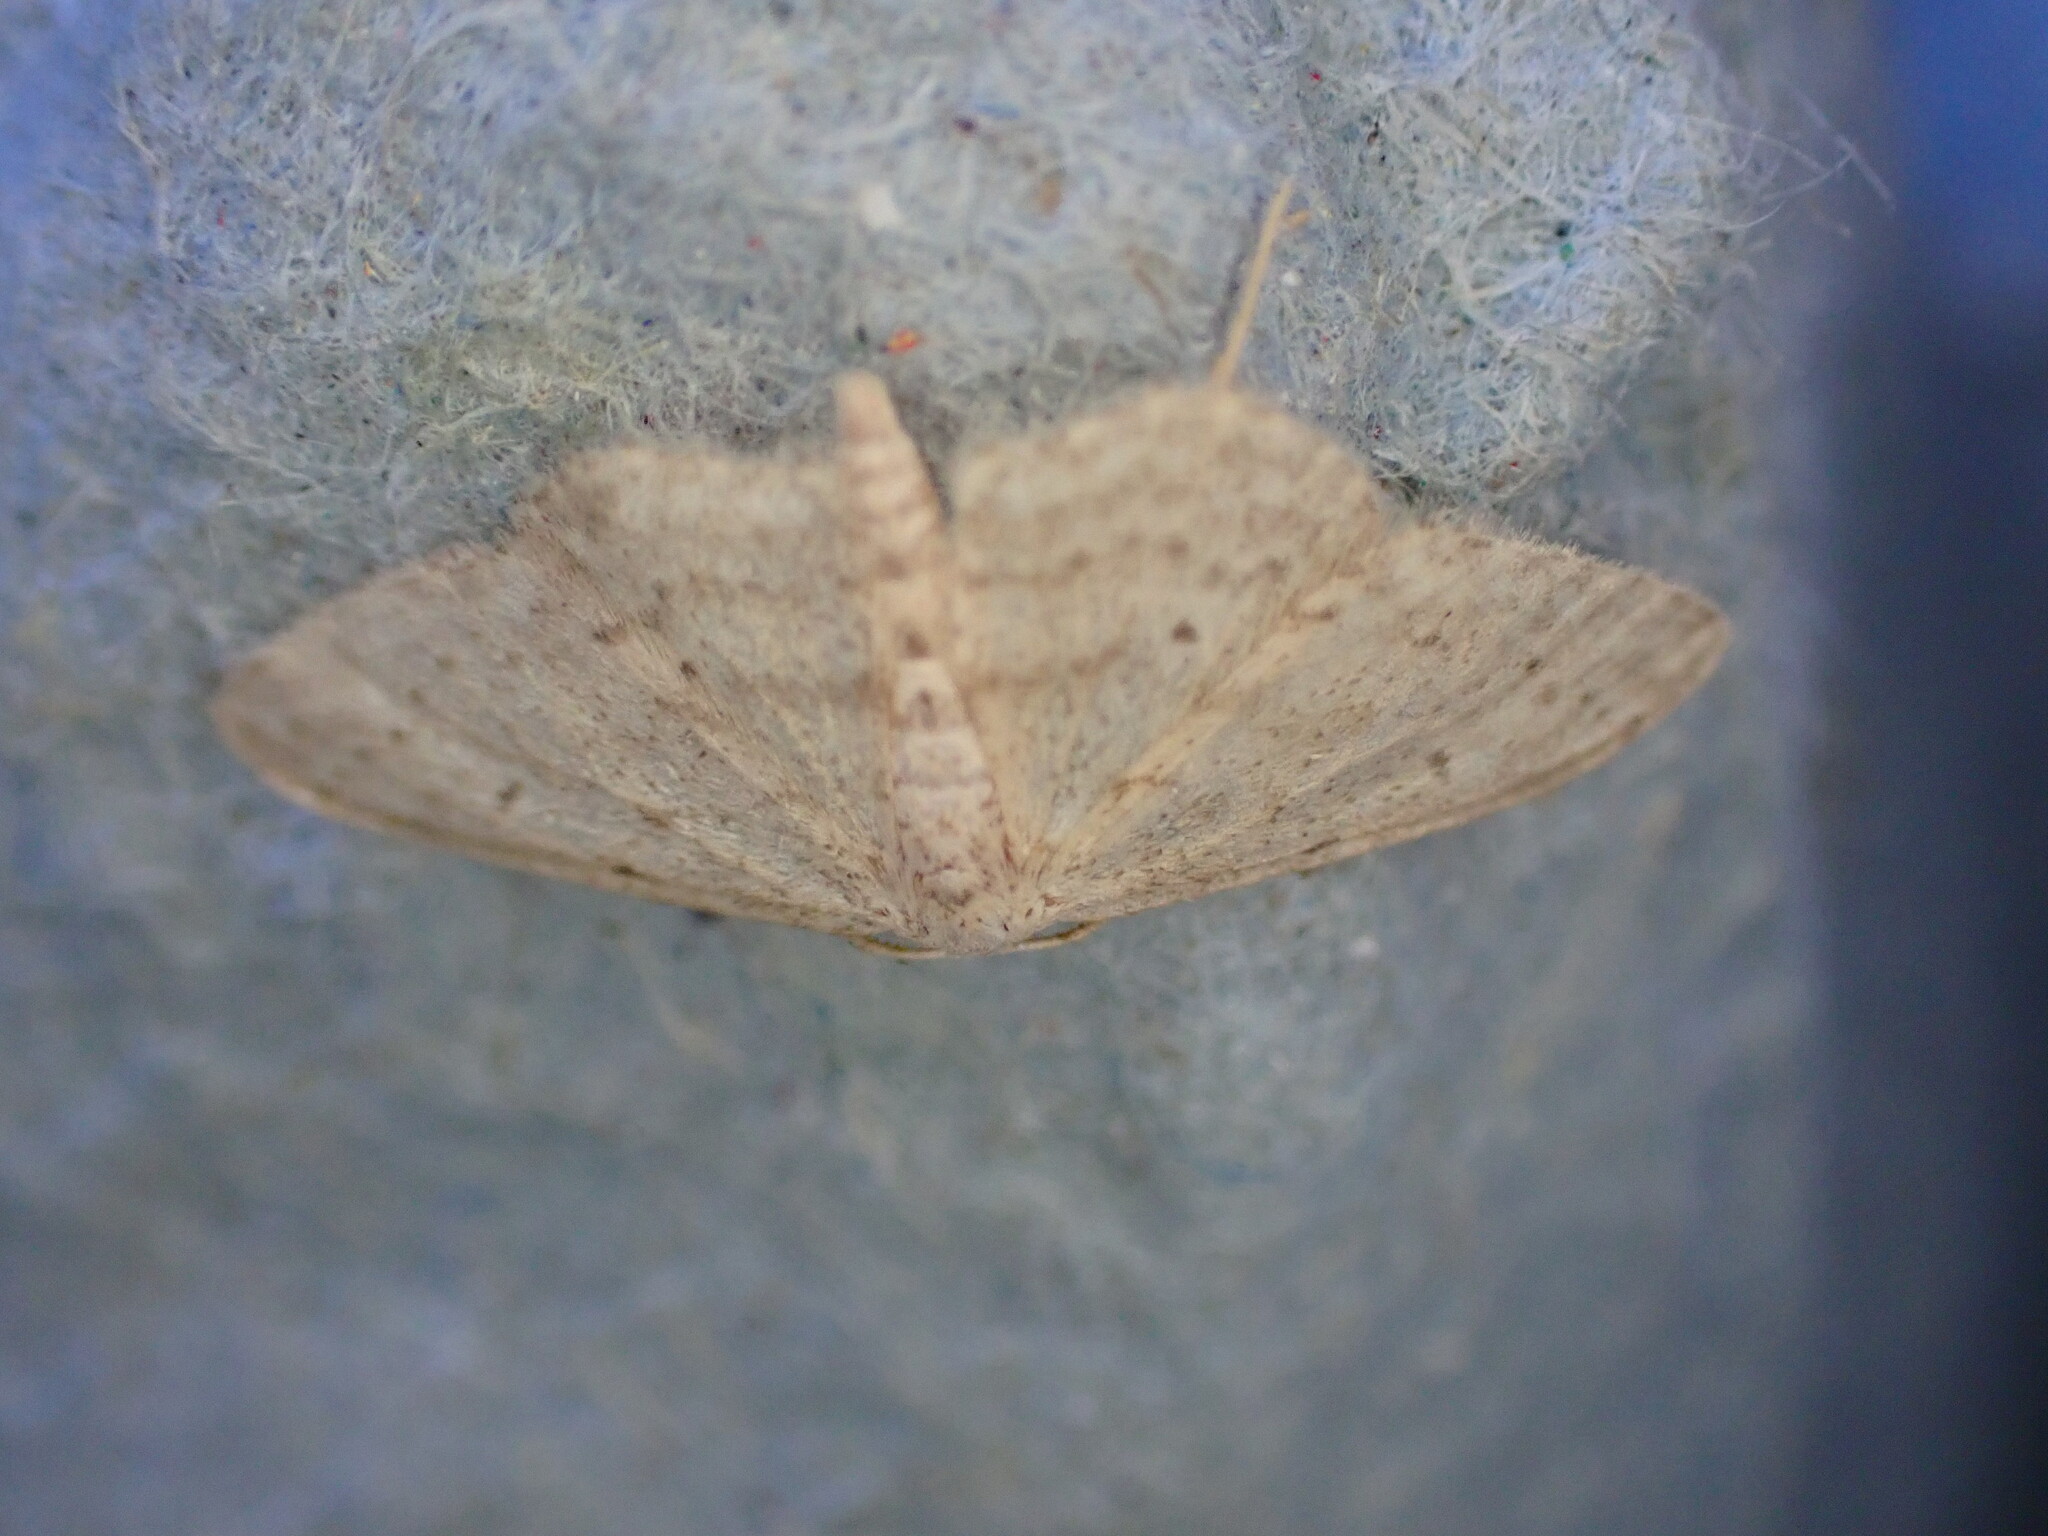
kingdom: Animalia
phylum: Arthropoda
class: Insecta
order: Lepidoptera
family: Geometridae
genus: Idaea
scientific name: Idaea seriata
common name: Small dusty wave
